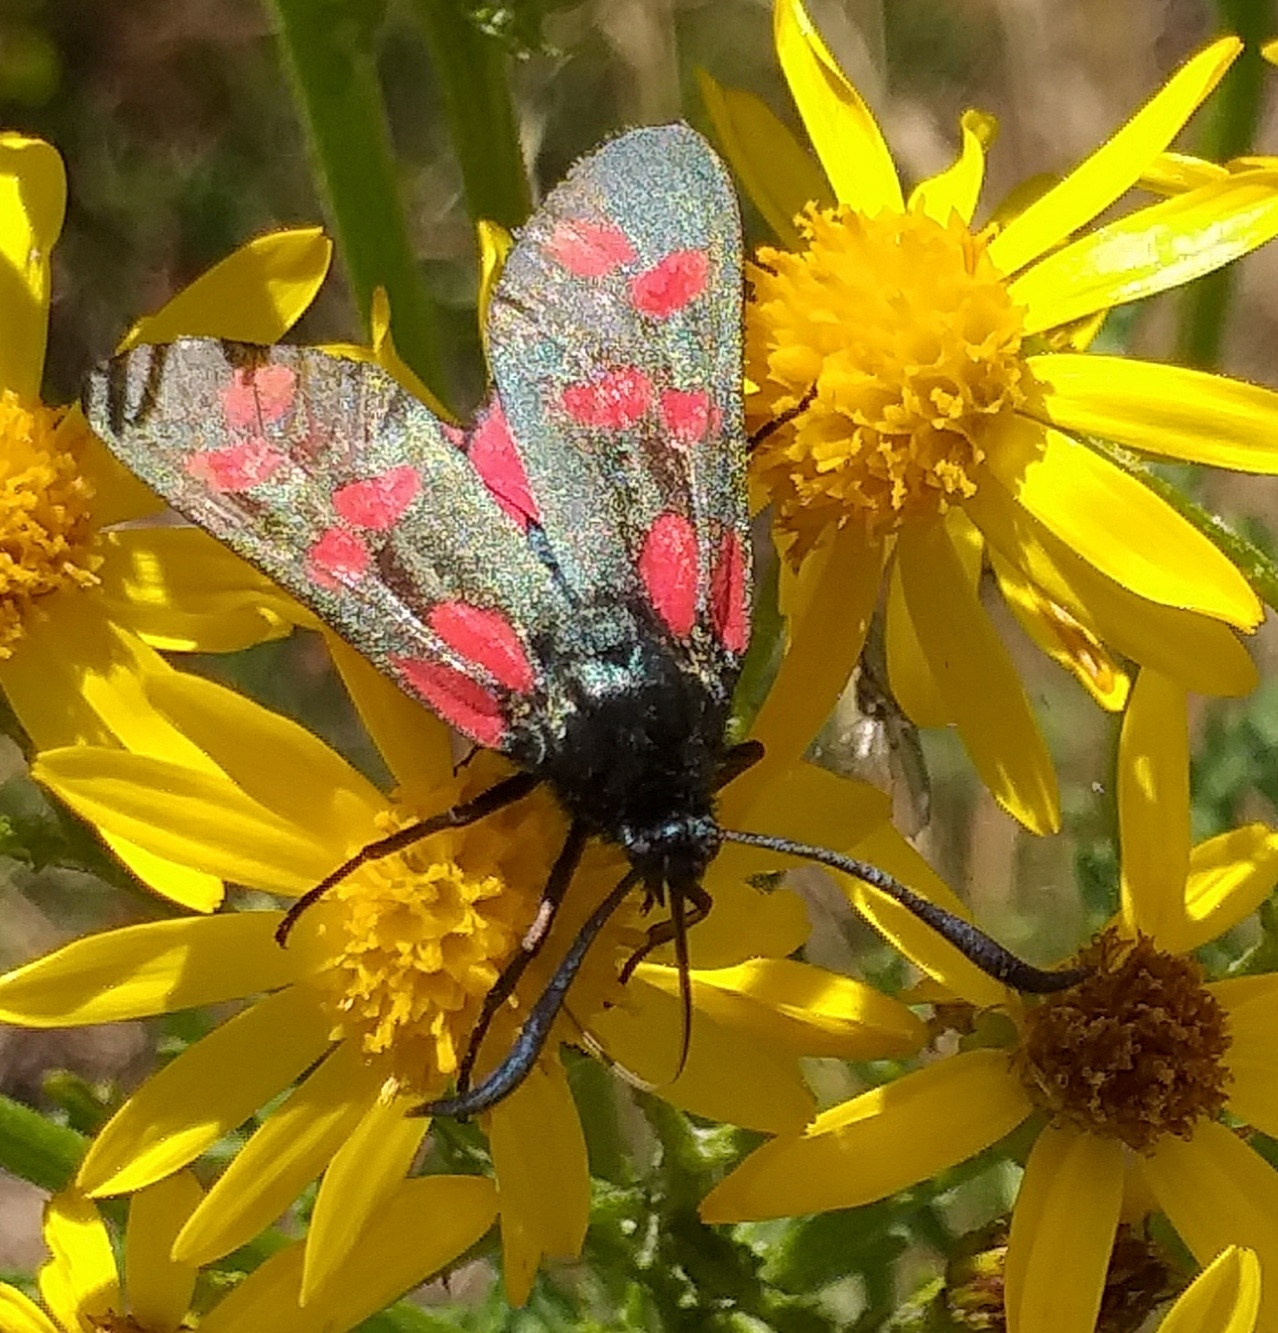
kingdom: Animalia
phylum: Arthropoda
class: Insecta
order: Lepidoptera
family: Zygaenidae
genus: Zygaena
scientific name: Zygaena filipendulae
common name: Six-spot burnet
